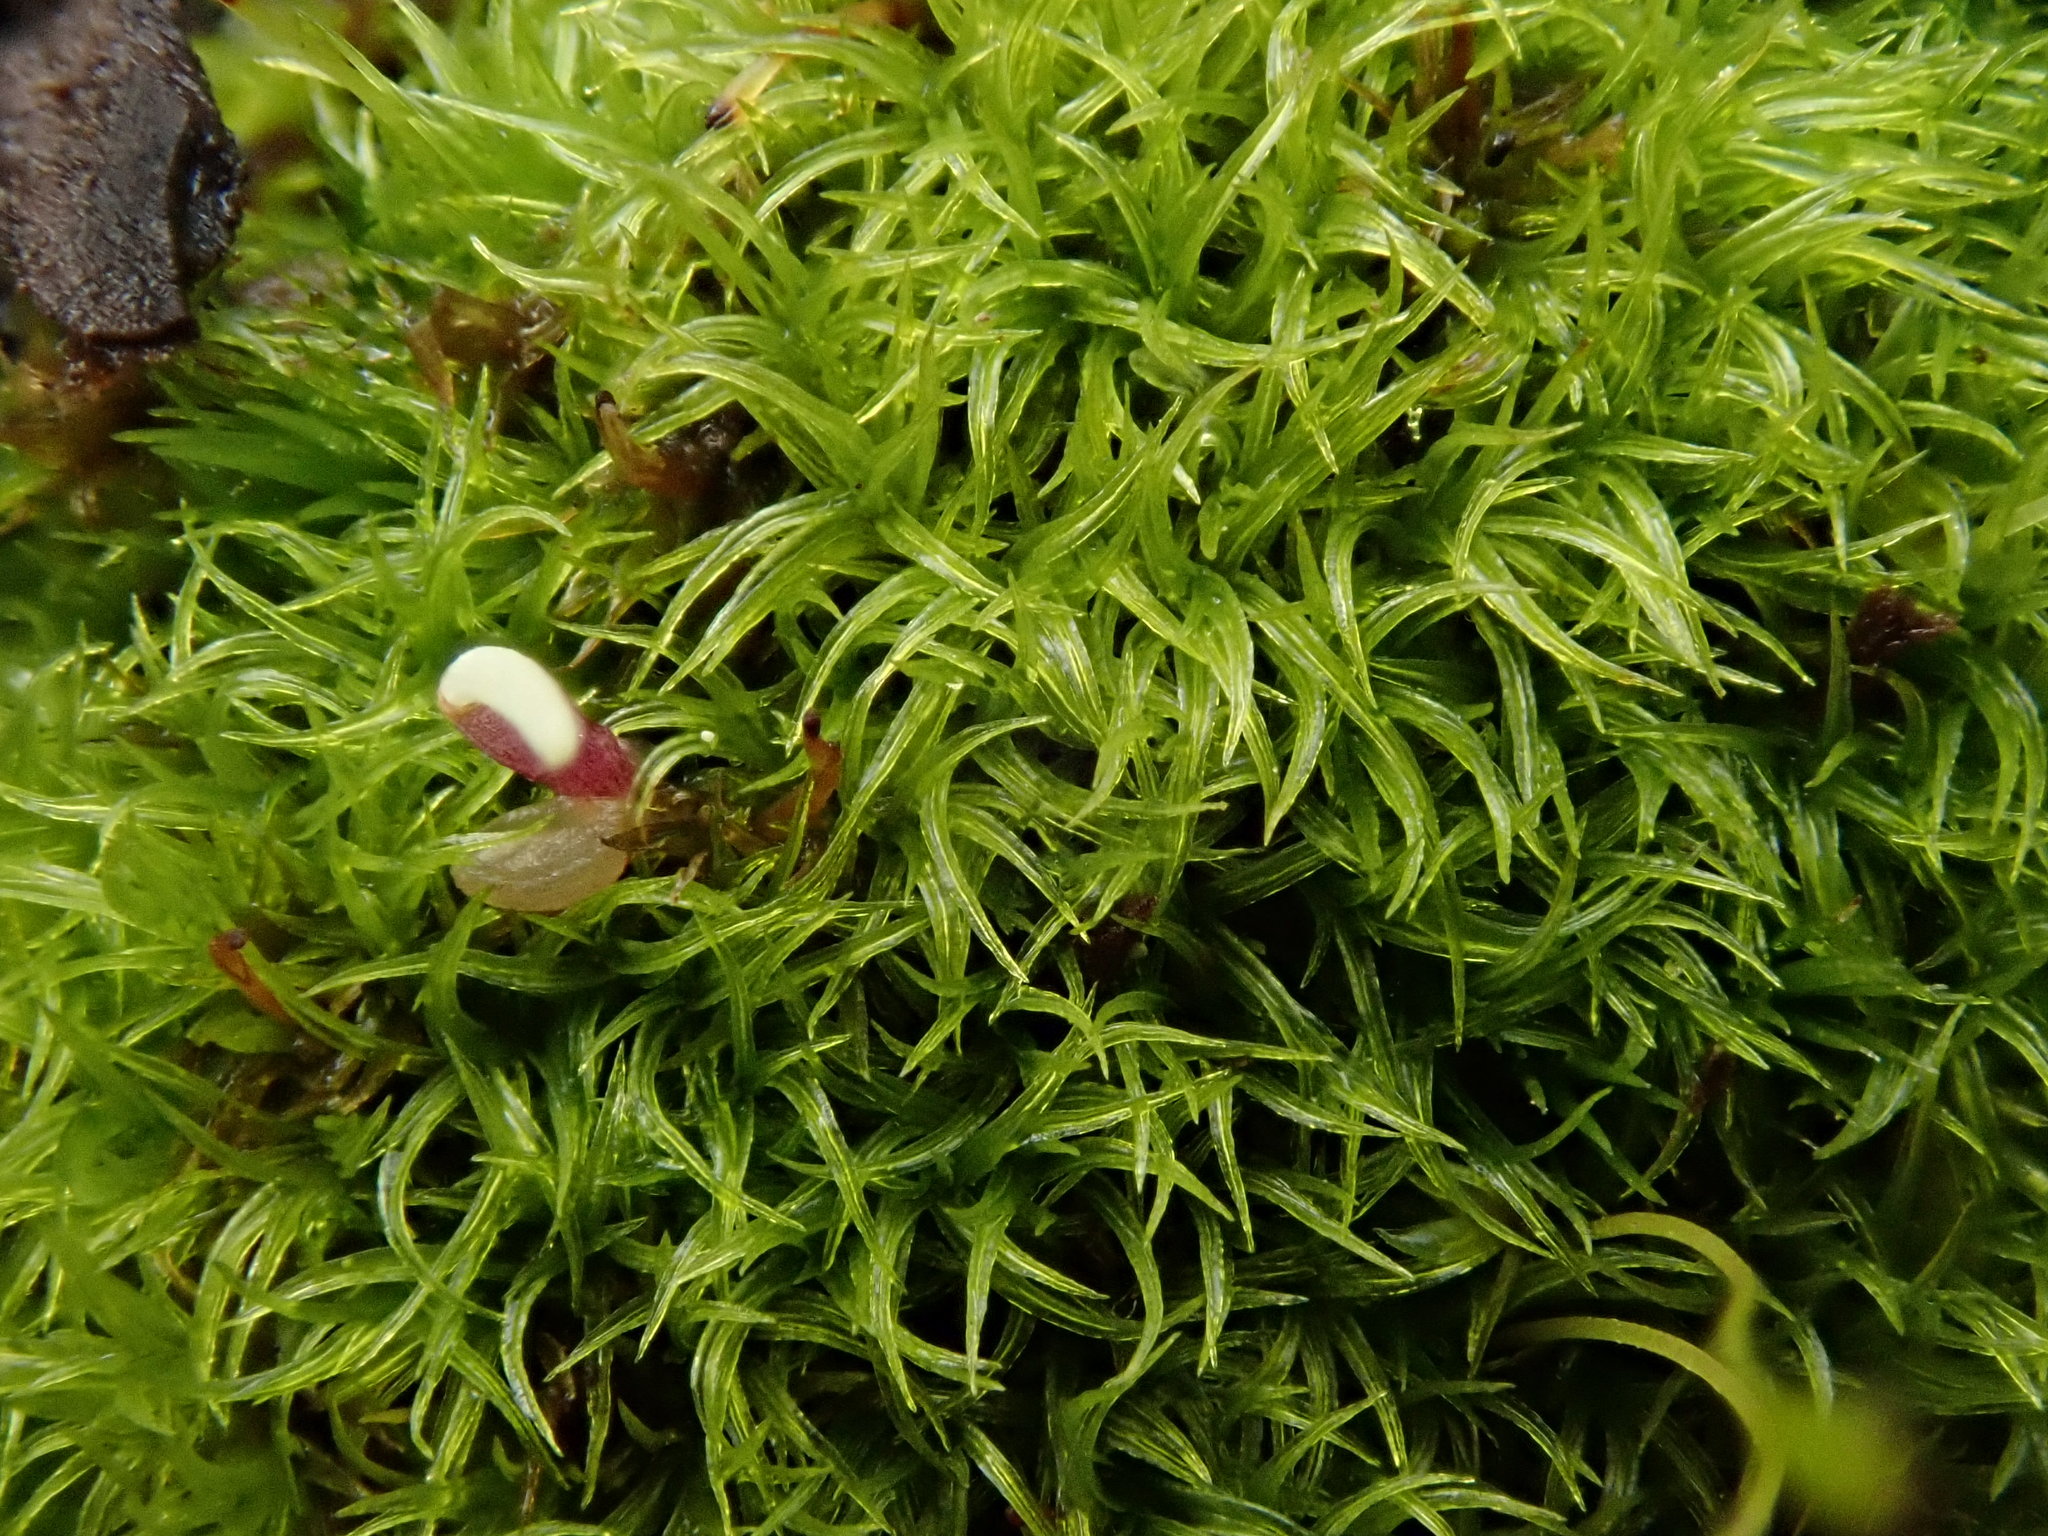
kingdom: Plantae
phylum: Bryophyta
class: Bryopsida
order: Dicranales
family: Rhabdoweisiaceae
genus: Dicranoweisia
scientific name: Dicranoweisia cirrata
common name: Common pincushion
